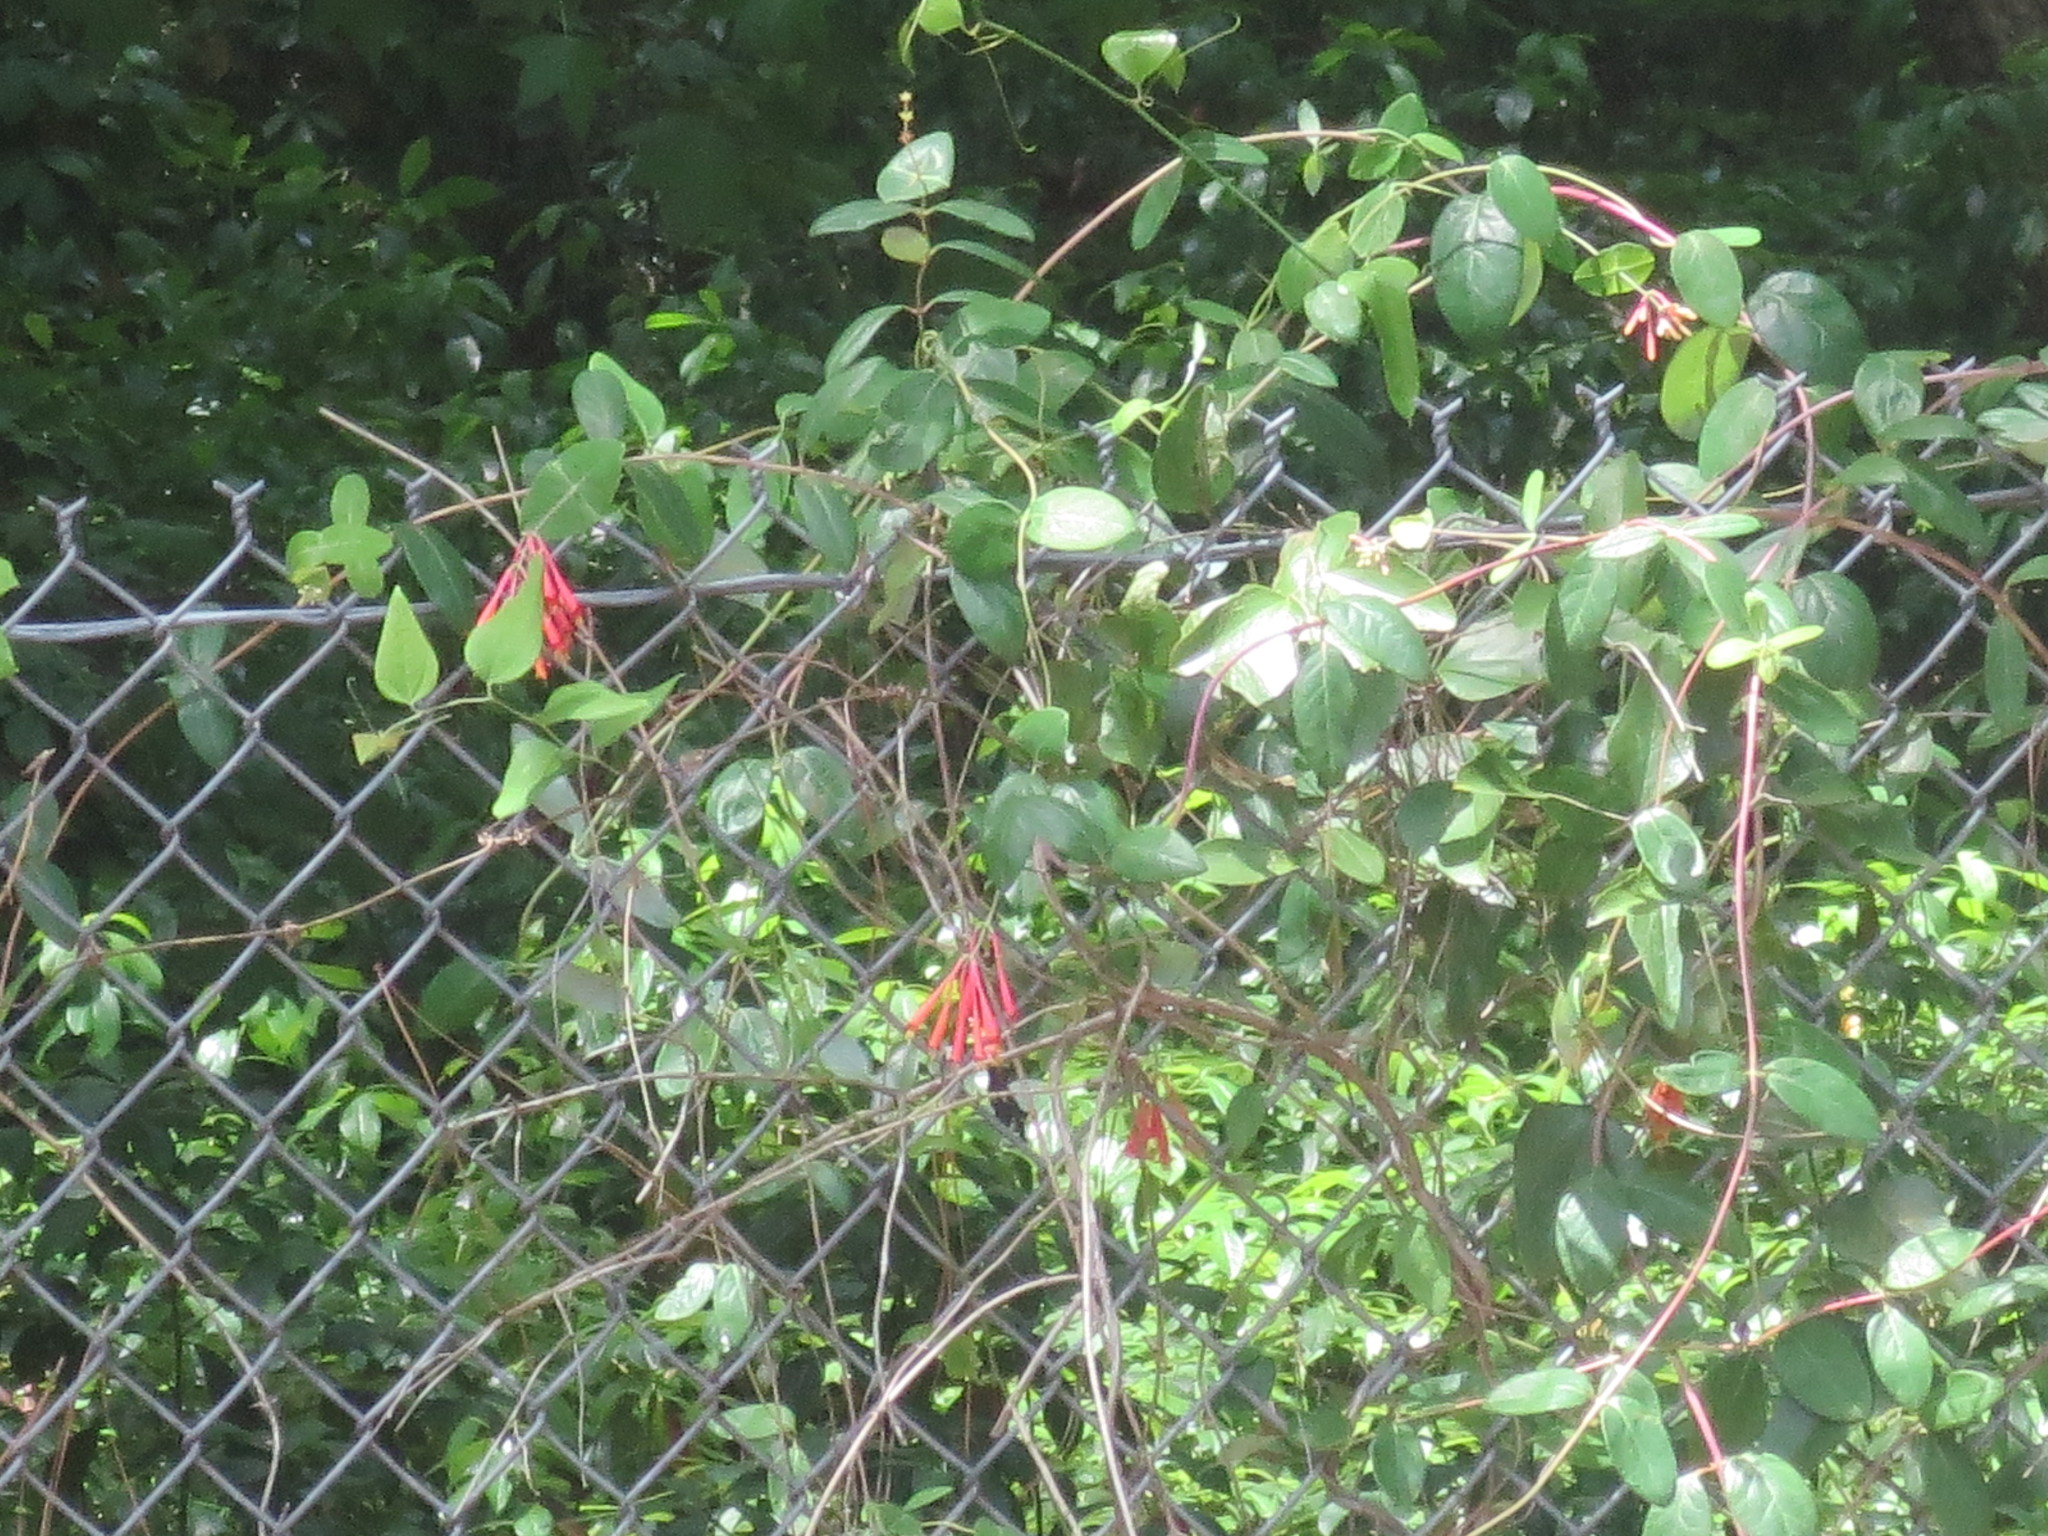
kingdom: Plantae
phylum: Tracheophyta
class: Magnoliopsida
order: Dipsacales
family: Caprifoliaceae
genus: Lonicera
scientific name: Lonicera sempervirens
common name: Coral honeysuckle
